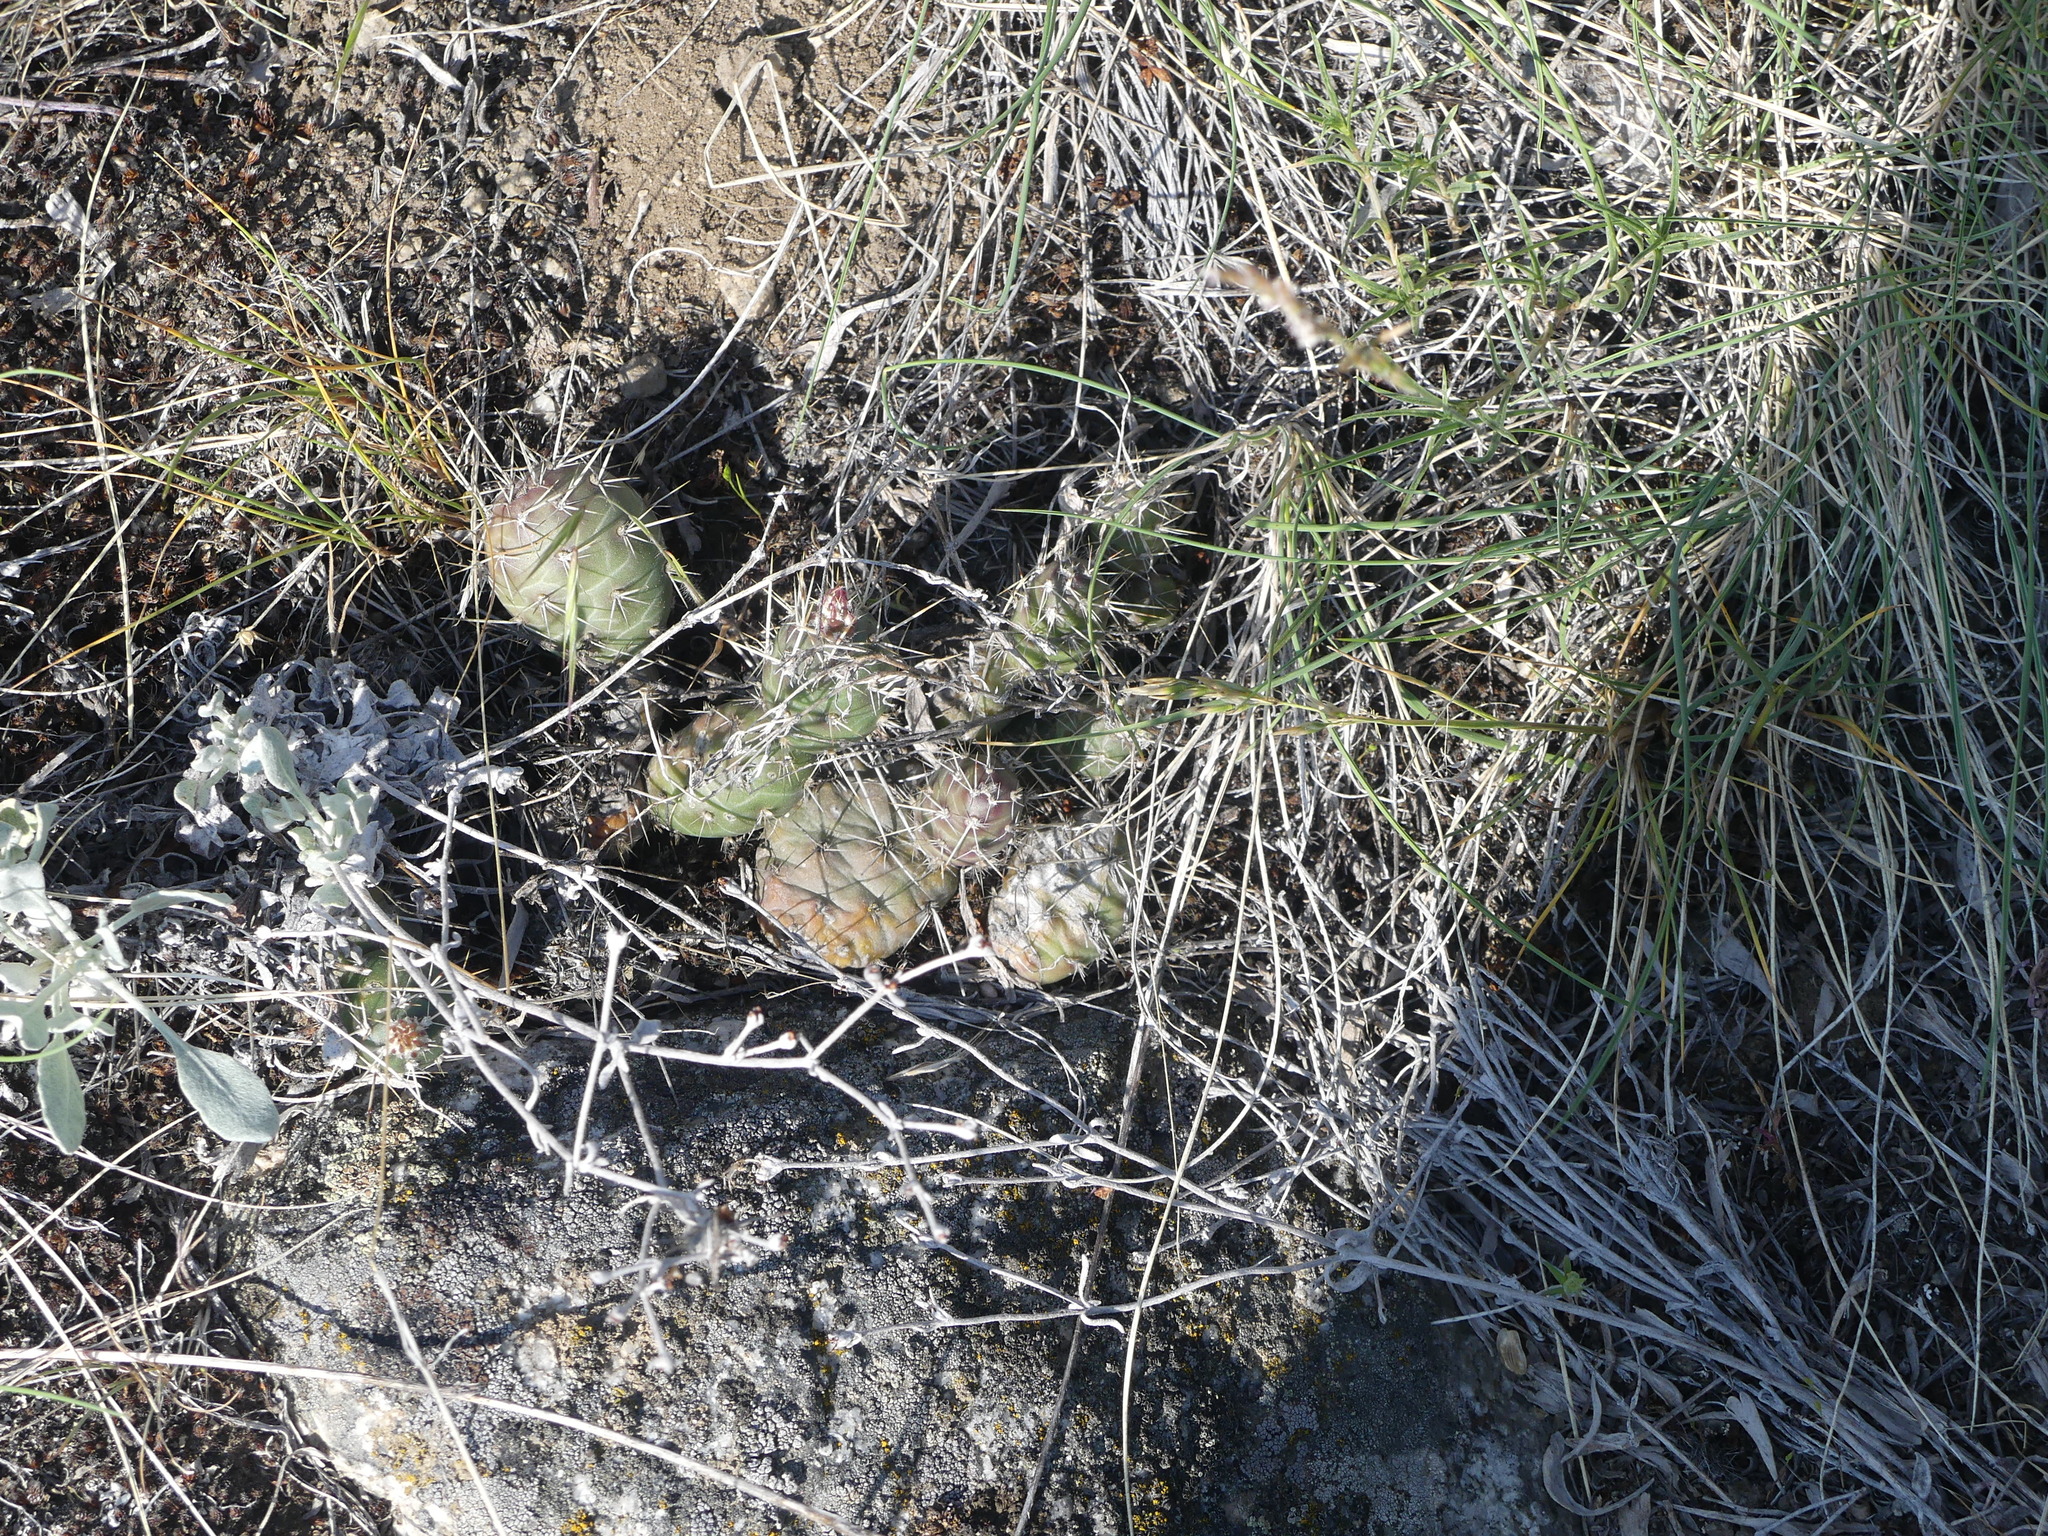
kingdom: Plantae
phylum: Tracheophyta
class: Magnoliopsida
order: Caryophyllales
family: Cactaceae
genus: Opuntia
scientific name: Opuntia fragilis
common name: Brittle cactus
